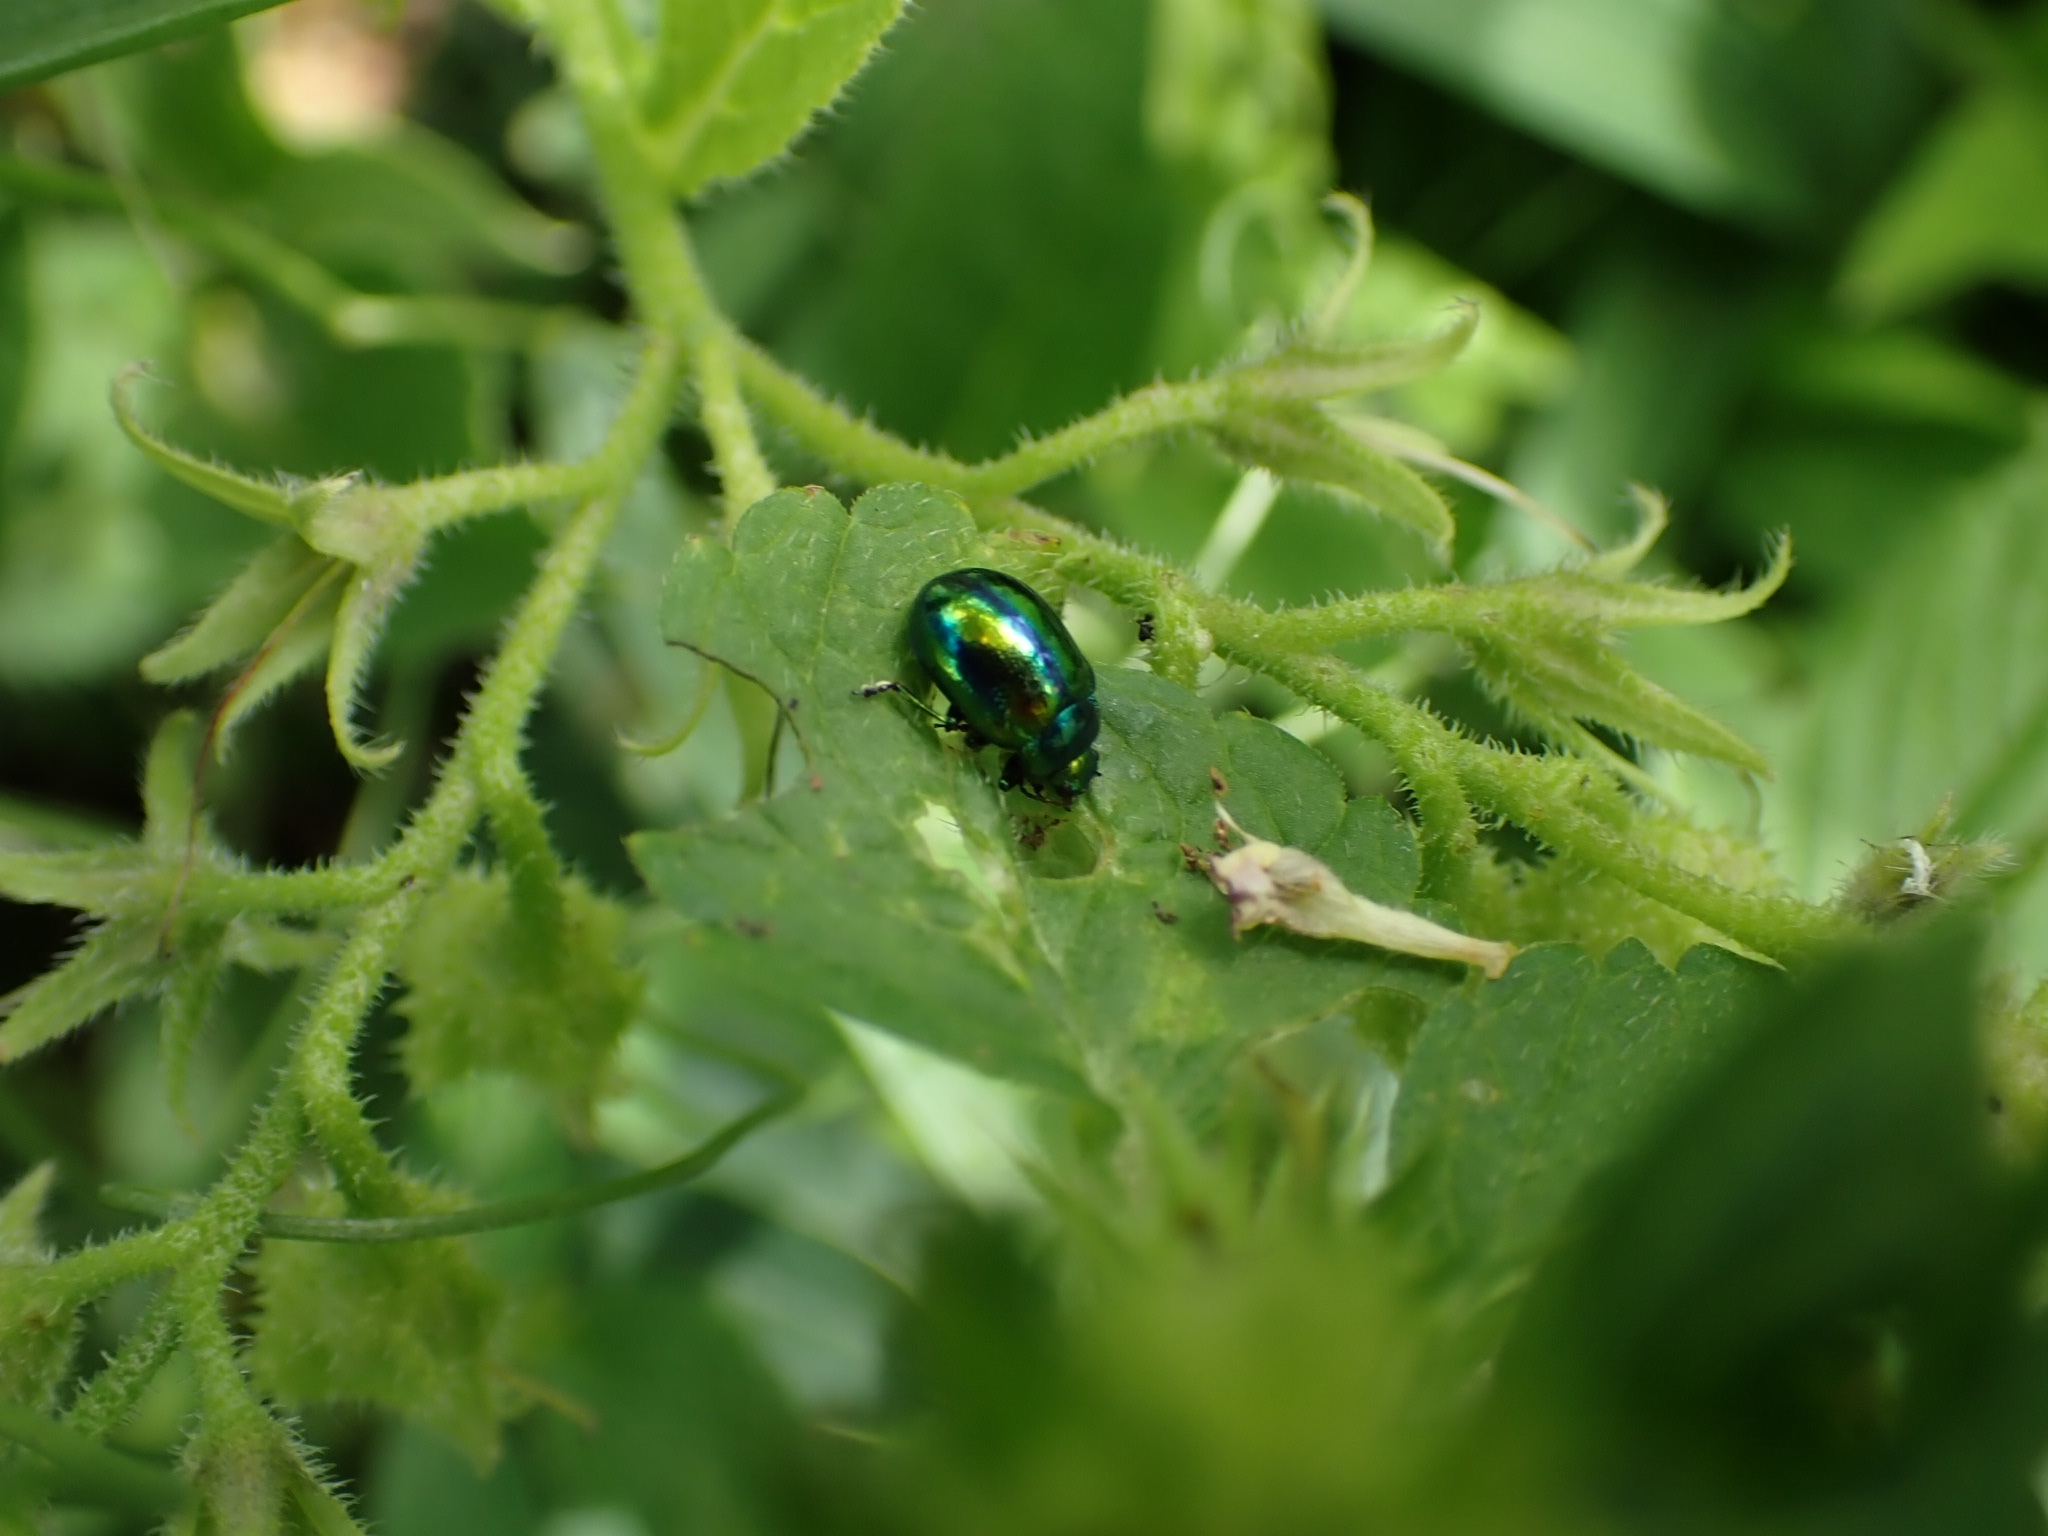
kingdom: Animalia
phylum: Arthropoda
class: Insecta
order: Coleoptera
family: Chrysomelidae
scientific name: Chrysomelidae
